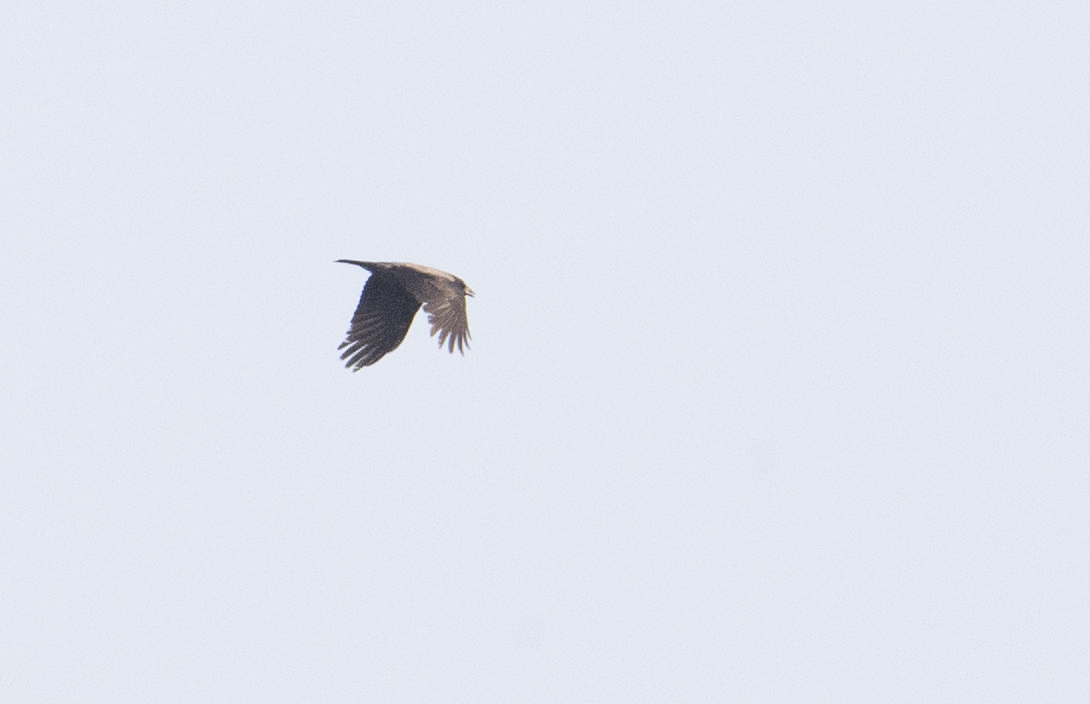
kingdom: Animalia
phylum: Chordata
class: Aves
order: Passeriformes
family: Corvidae
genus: Corvus
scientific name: Corvus cornix
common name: Hooded crow
